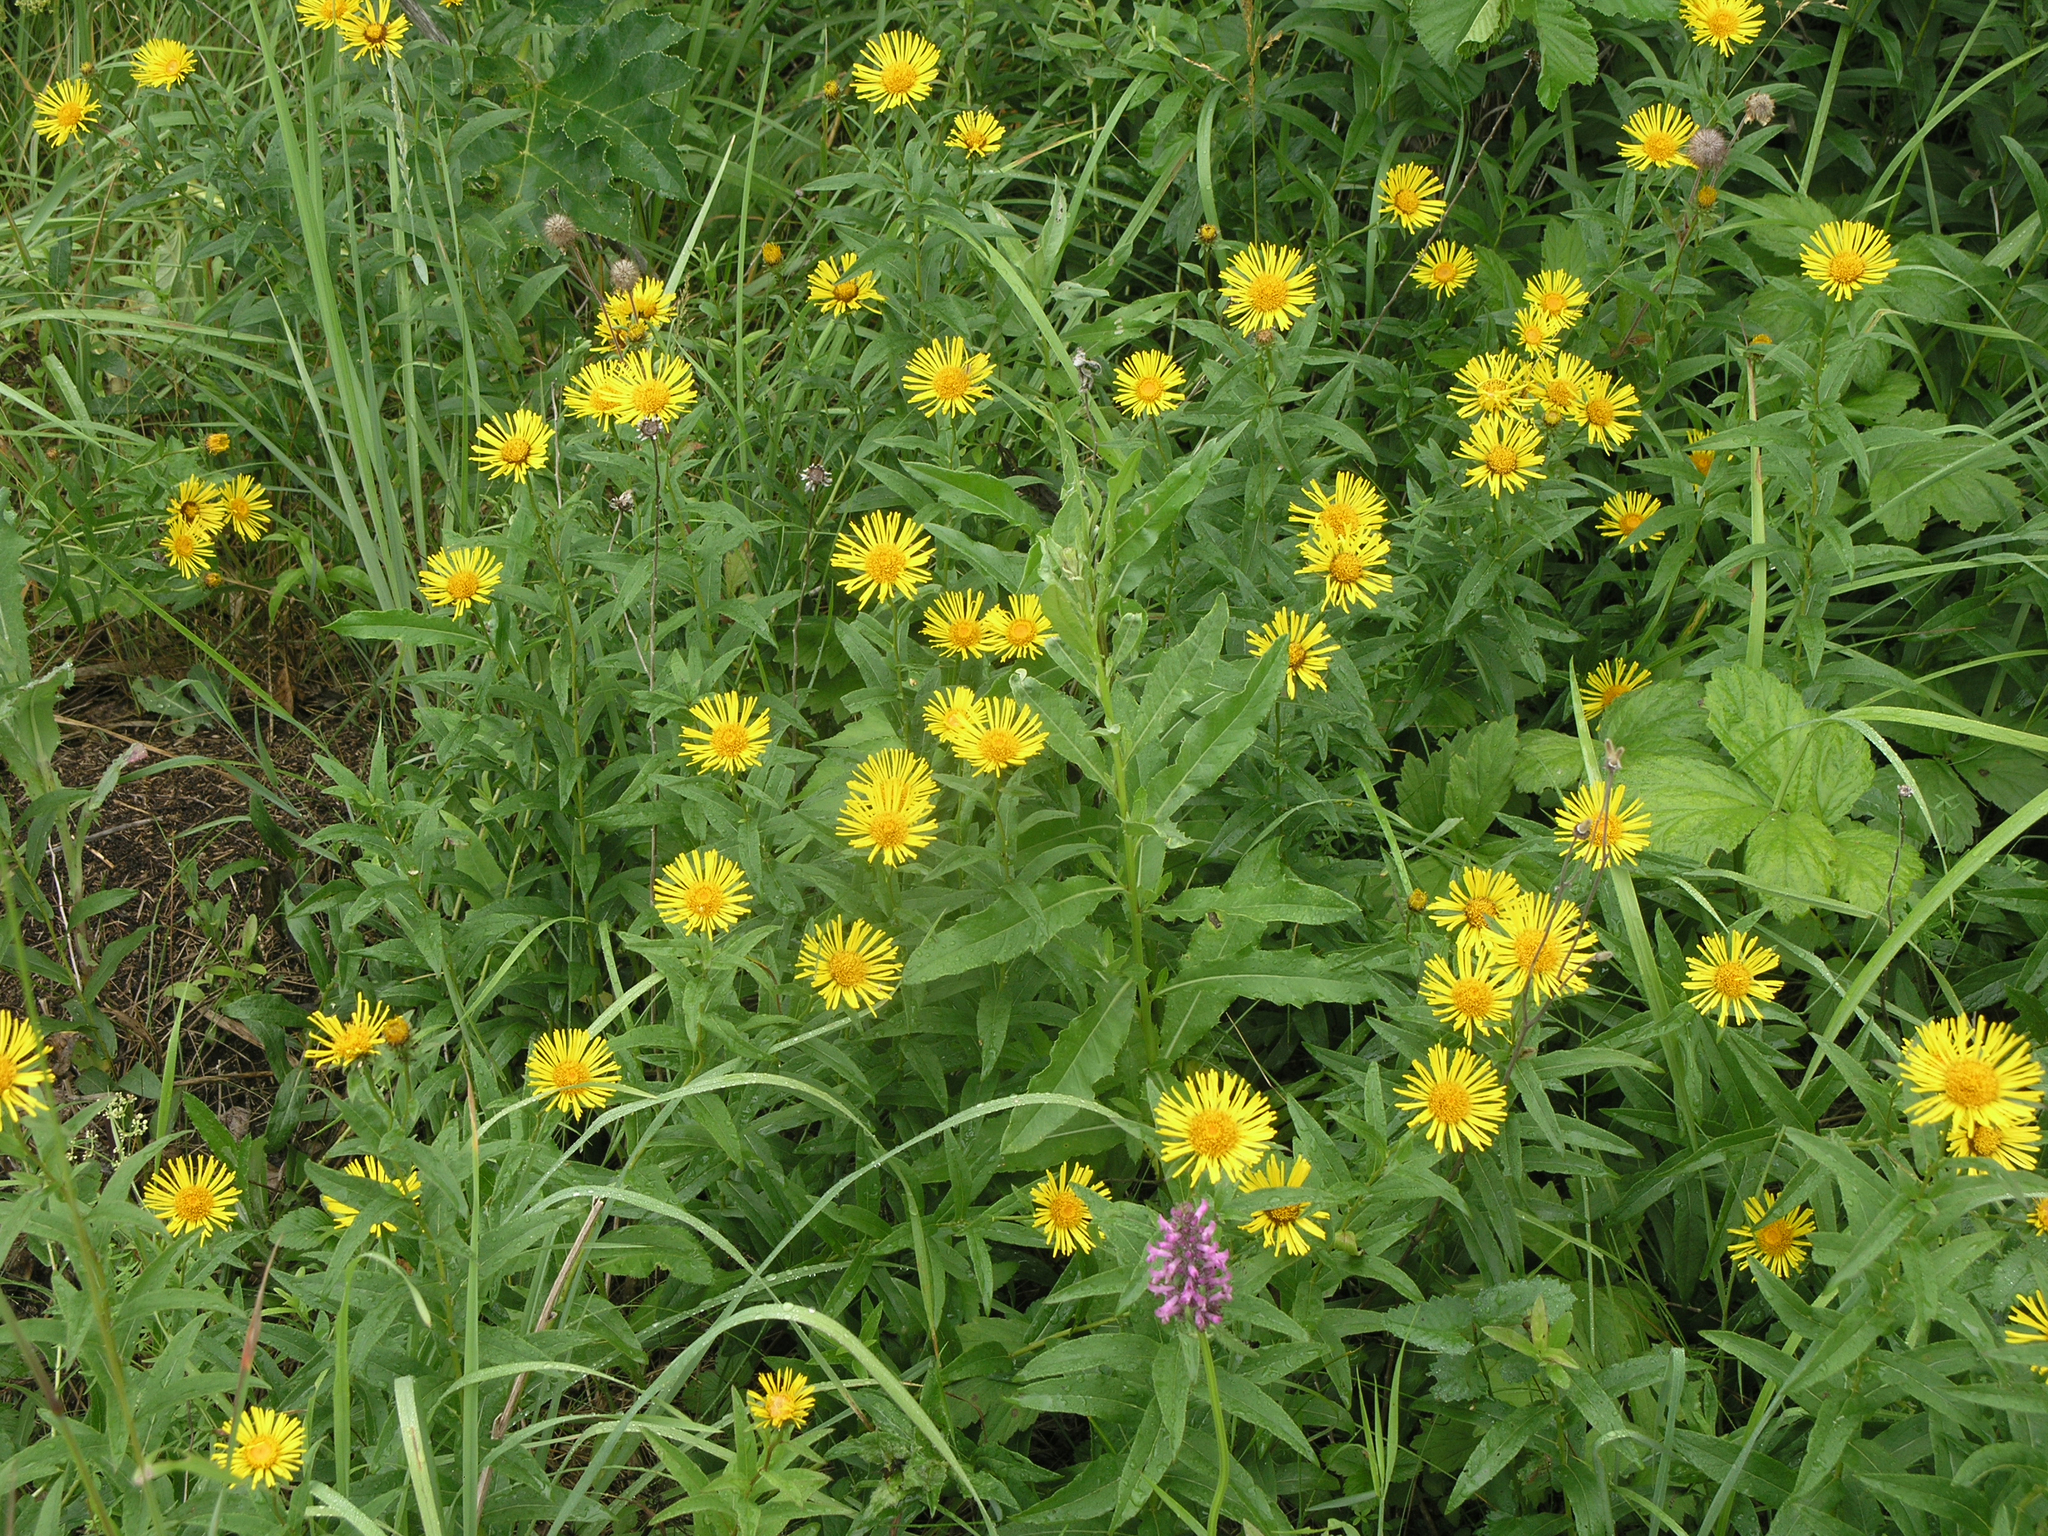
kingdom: Plantae
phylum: Tracheophyta
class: Magnoliopsida
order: Asterales
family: Asteraceae
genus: Pentanema
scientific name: Pentanema salicinum
